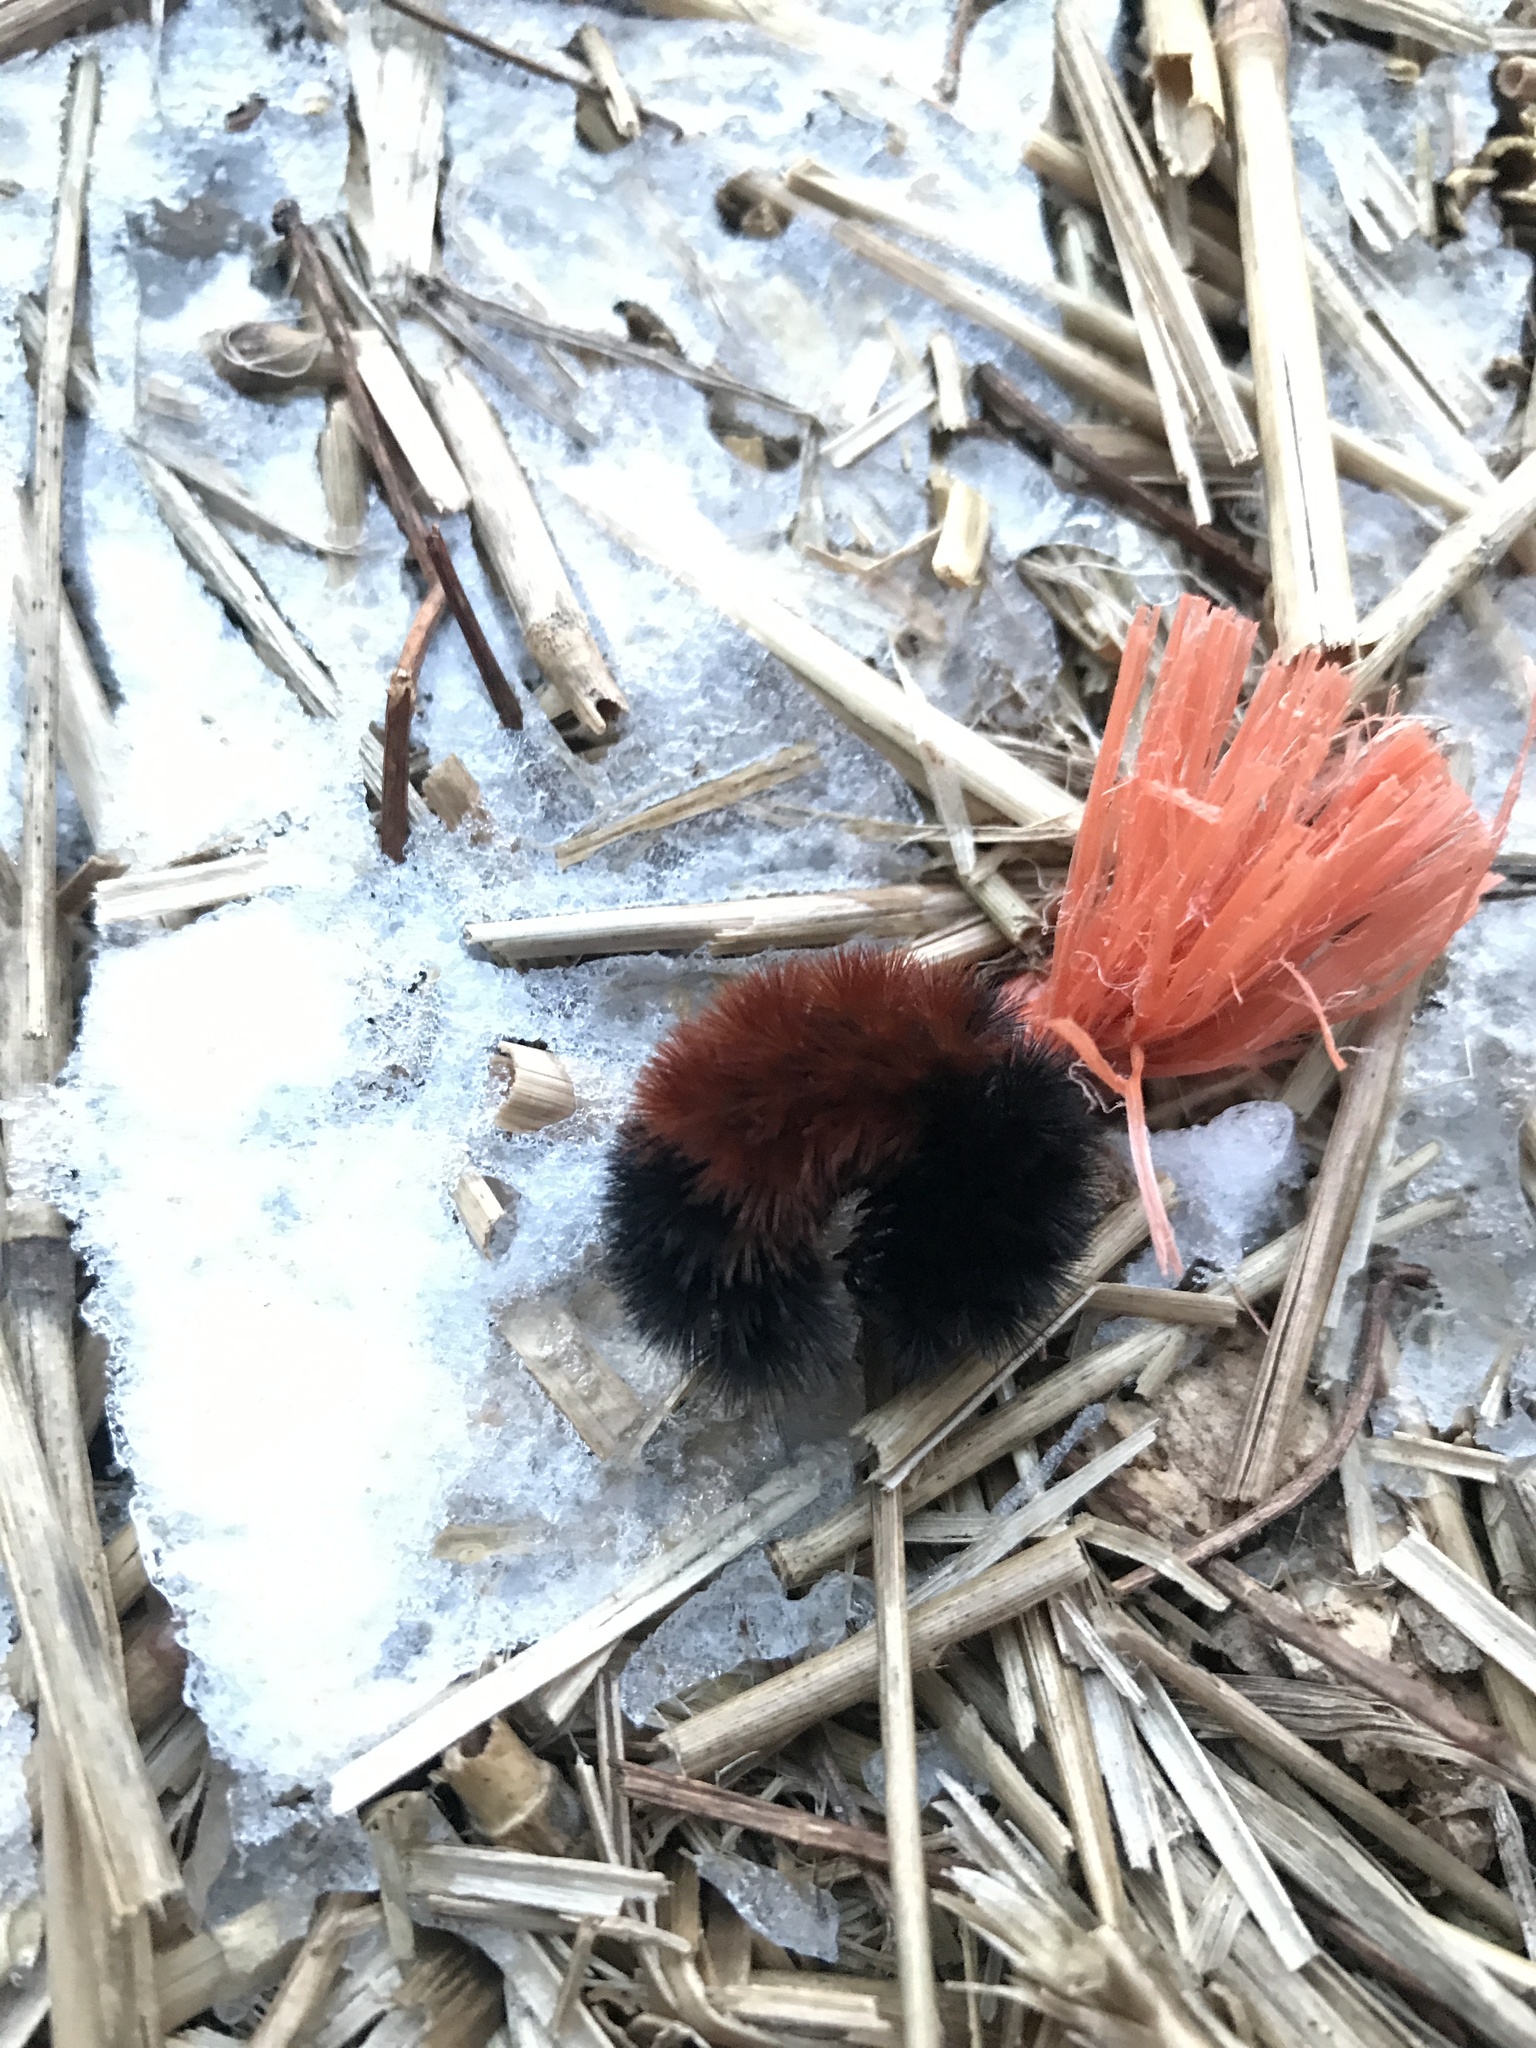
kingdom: Animalia
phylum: Arthropoda
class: Insecta
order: Lepidoptera
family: Erebidae
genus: Pyrrharctia
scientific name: Pyrrharctia isabella
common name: Isabella tiger moth
